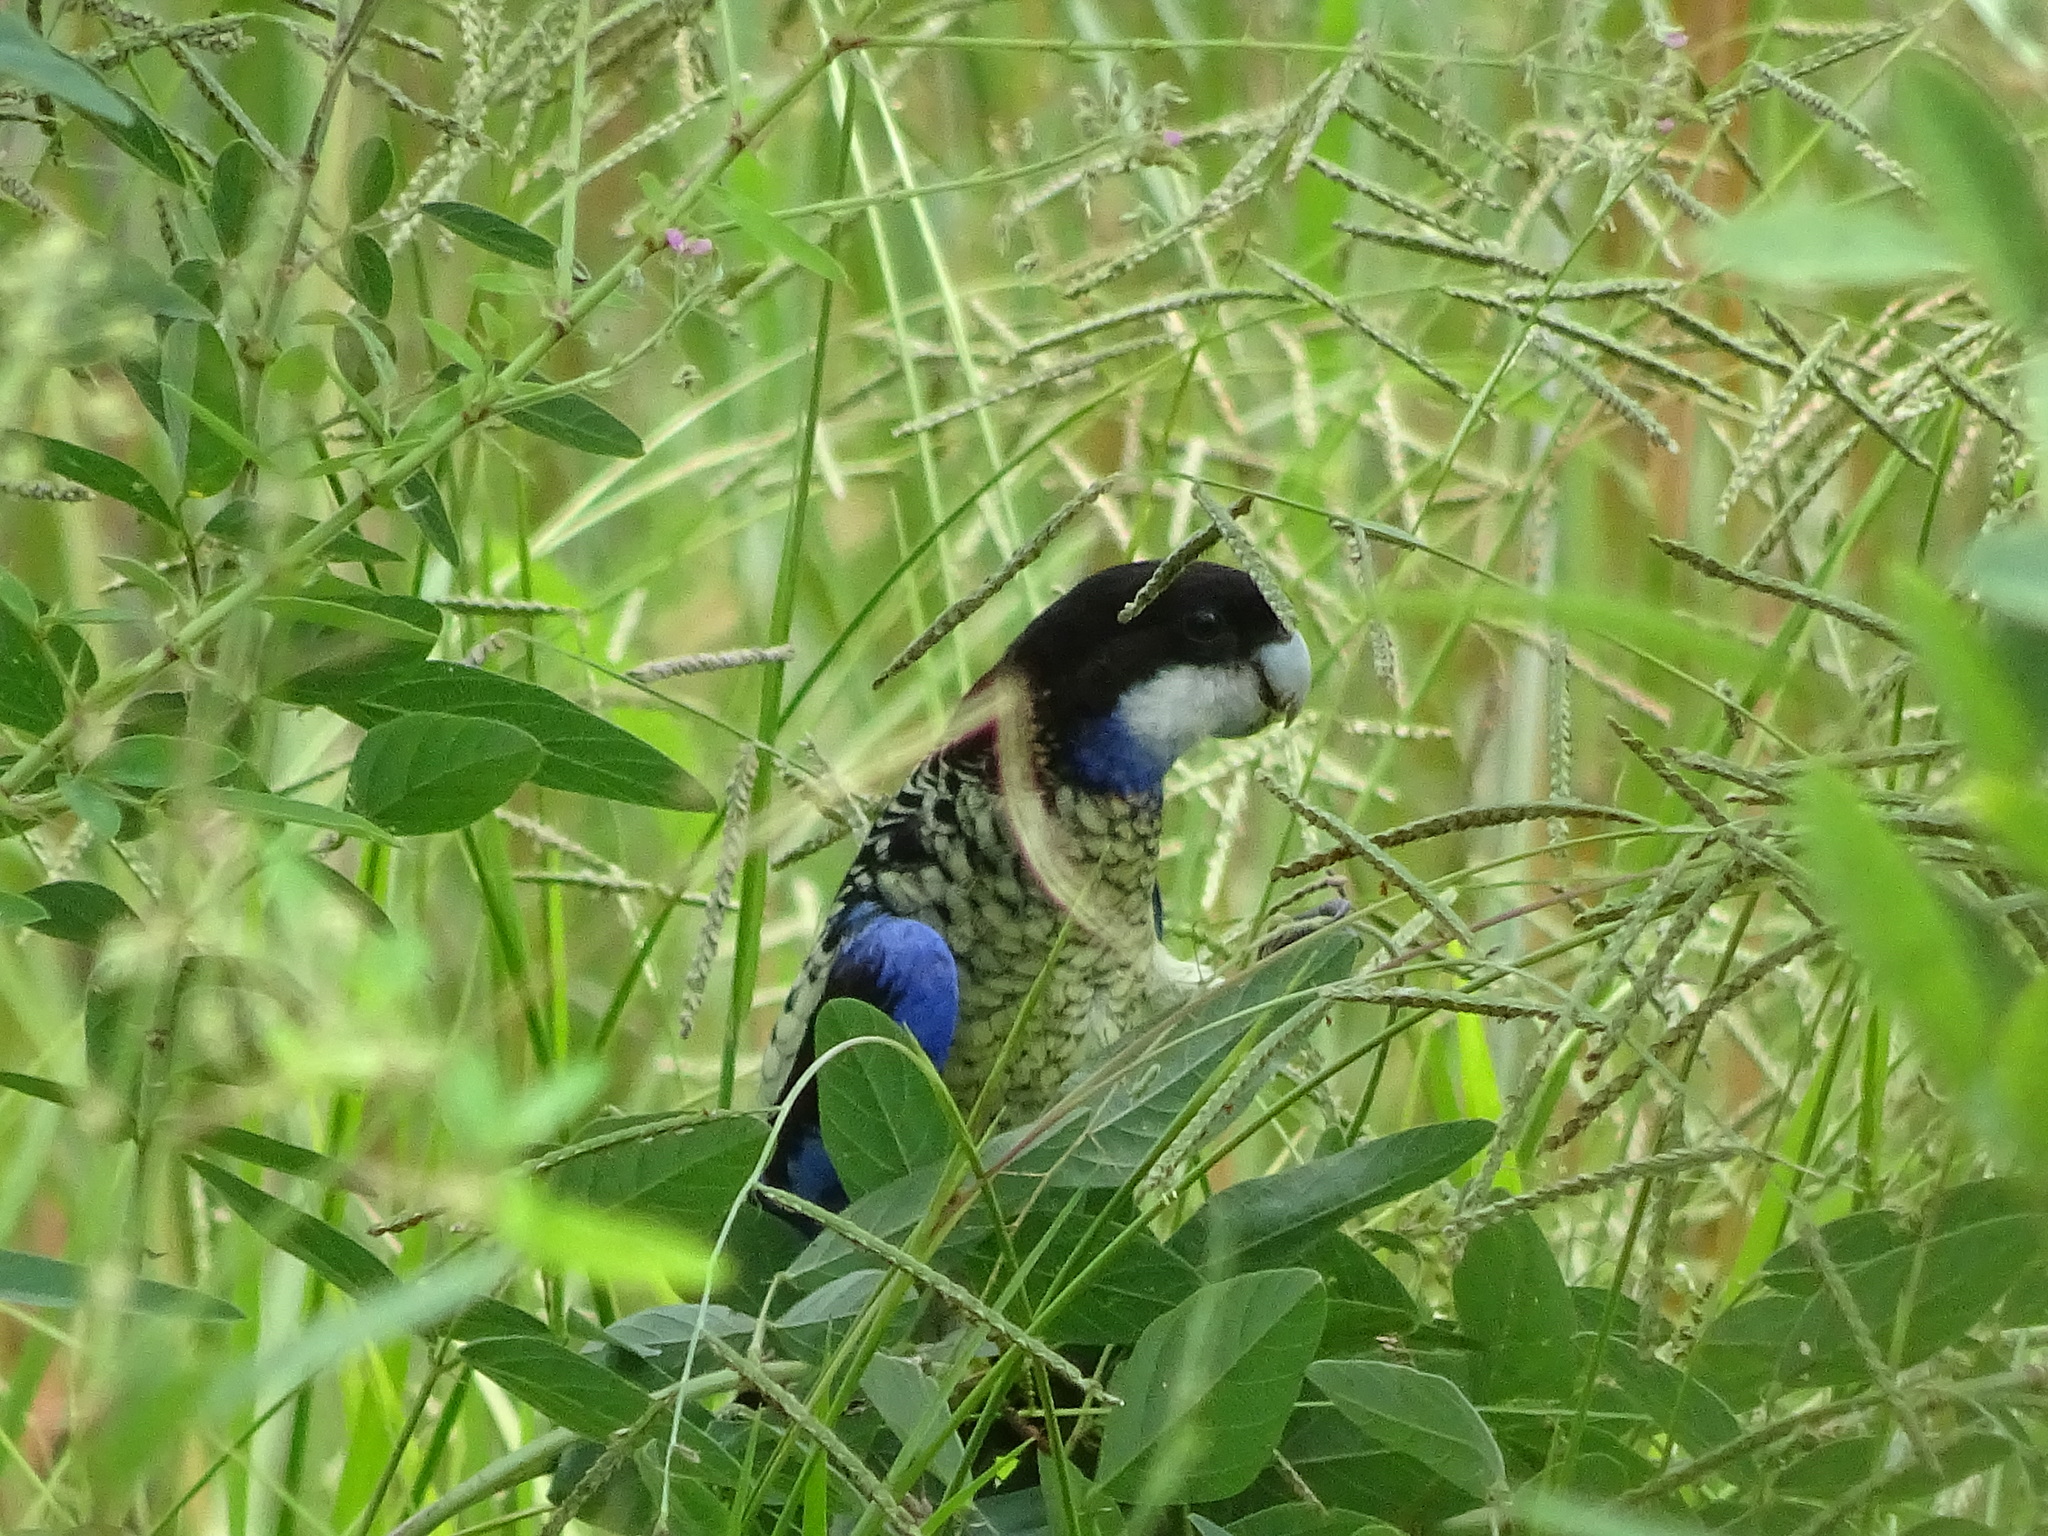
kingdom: Animalia
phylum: Chordata
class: Aves
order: Psittaciformes
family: Psittacidae
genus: Platycercus
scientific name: Platycercus venustus
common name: Northern rosella
